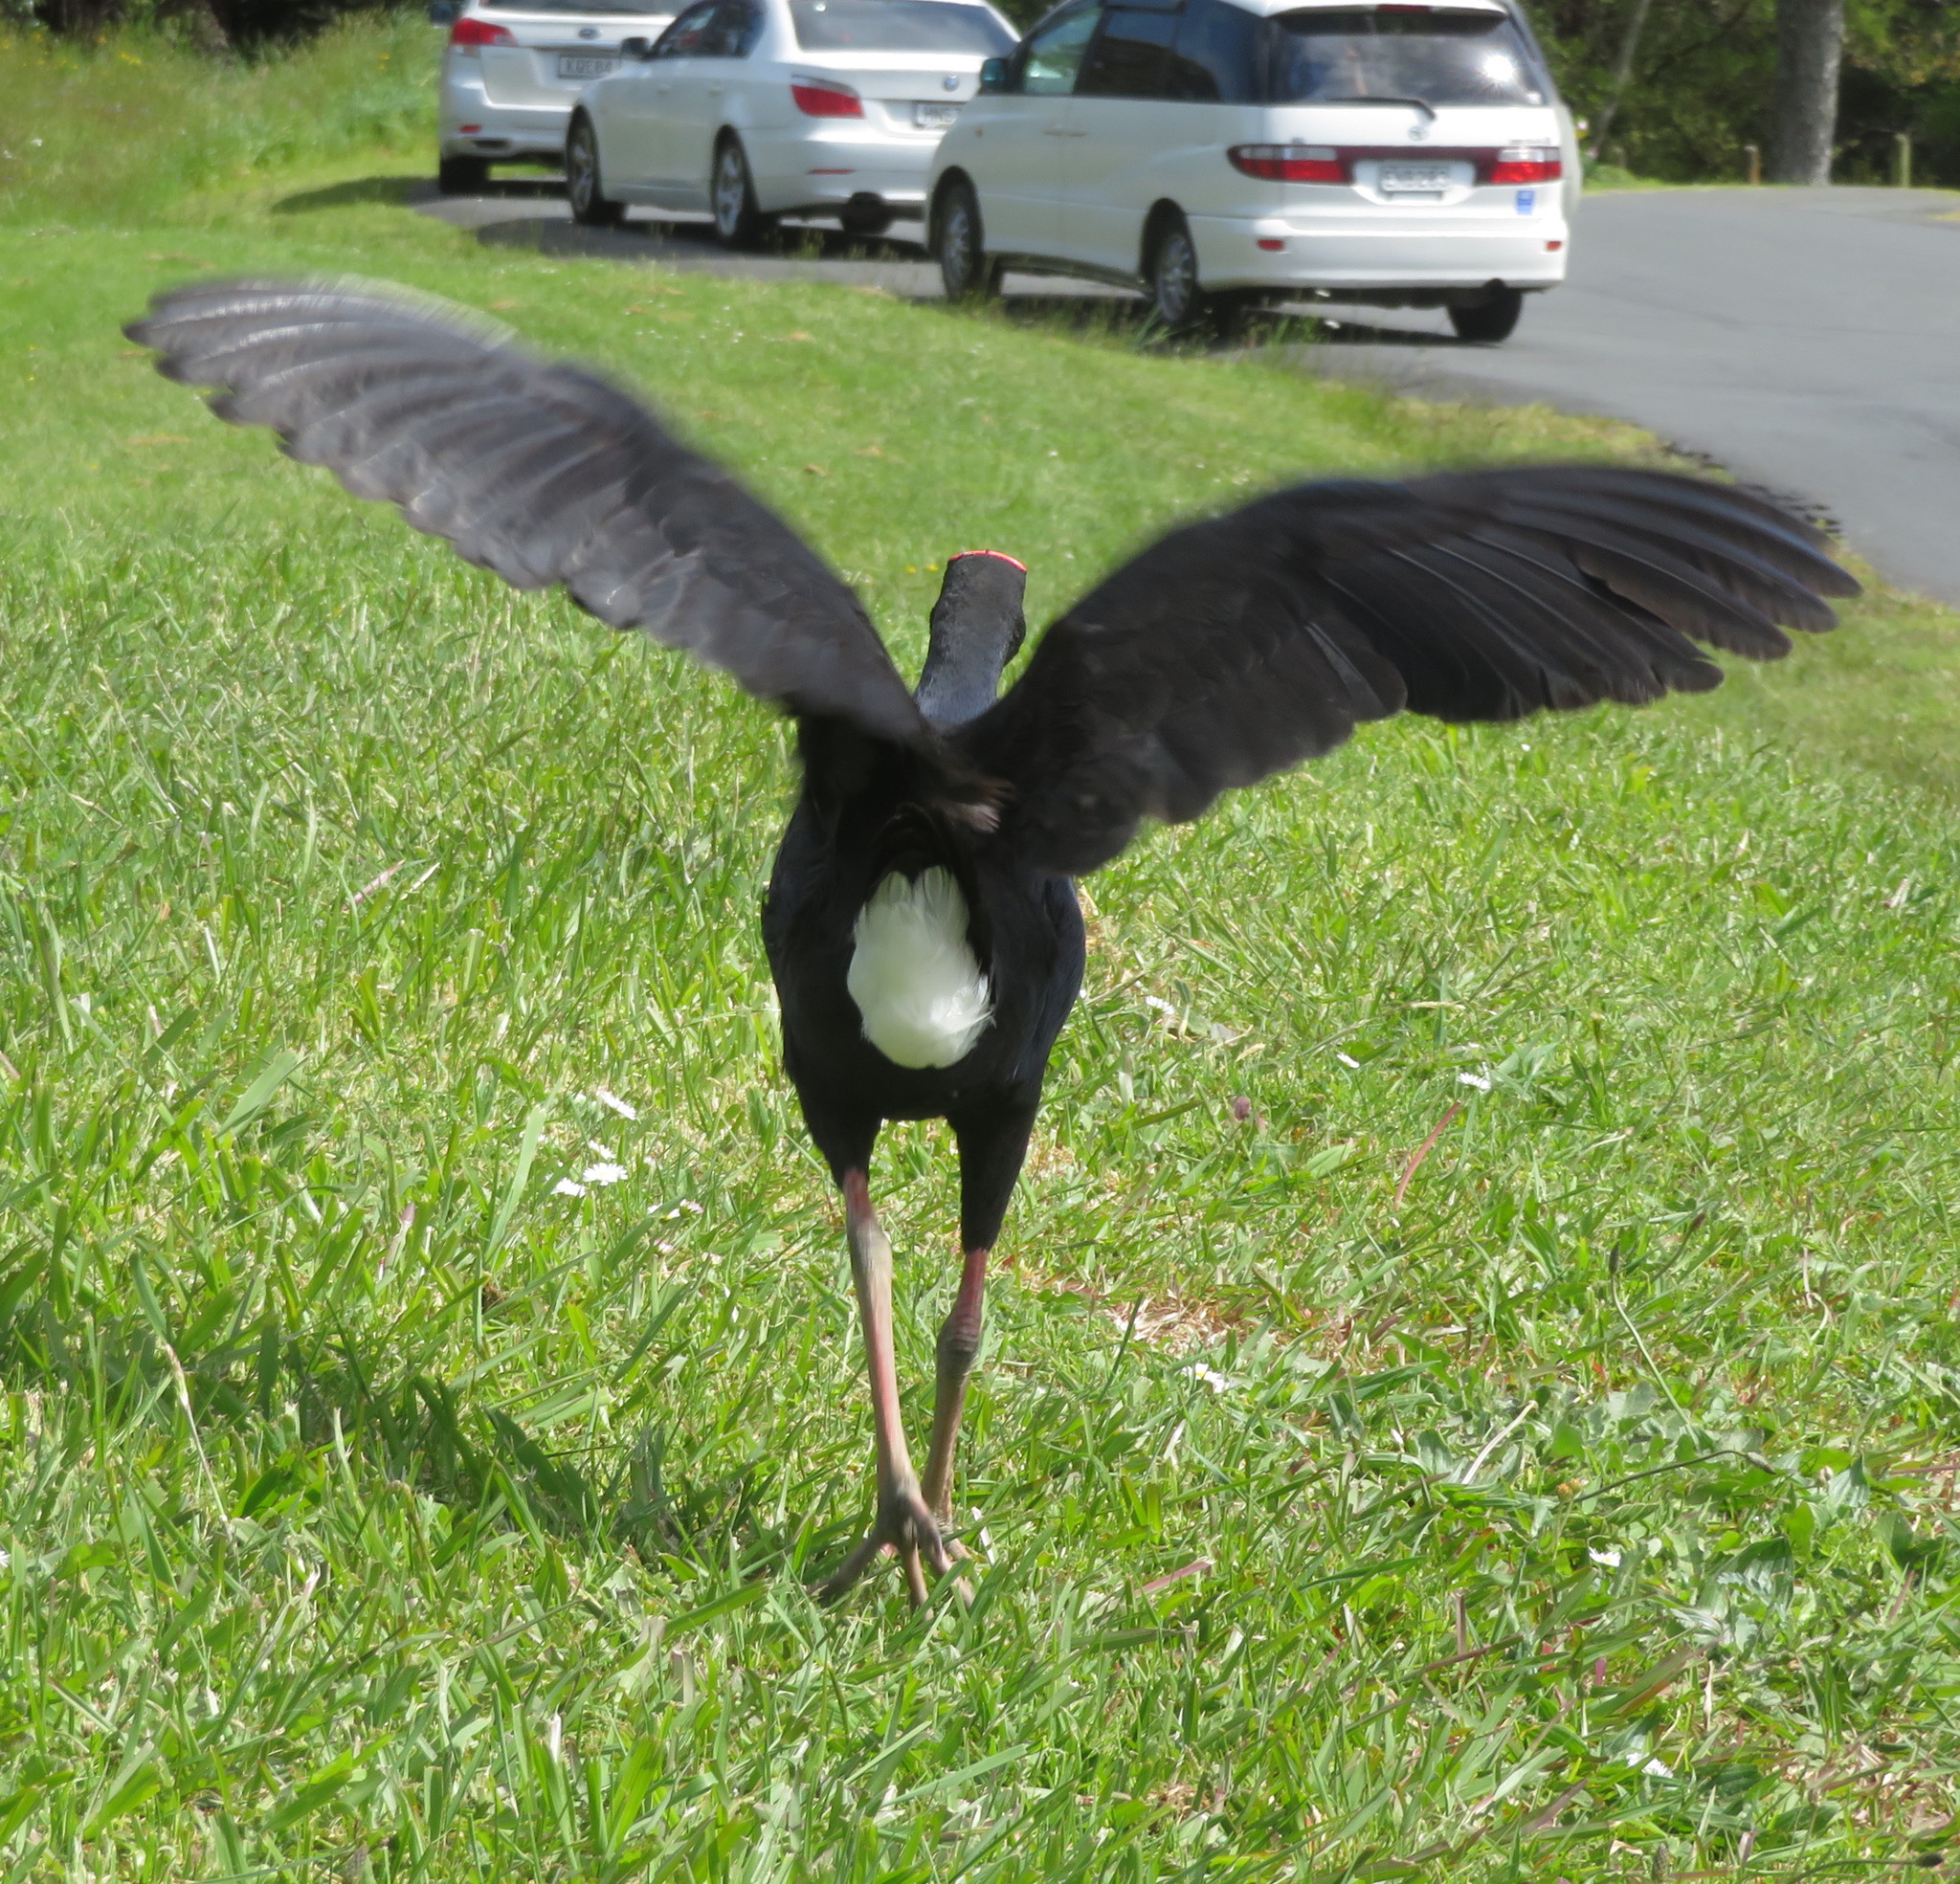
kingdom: Animalia
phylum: Chordata
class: Aves
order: Gruiformes
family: Rallidae
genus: Porphyrio
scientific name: Porphyrio melanotus
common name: Australasian swamphen
